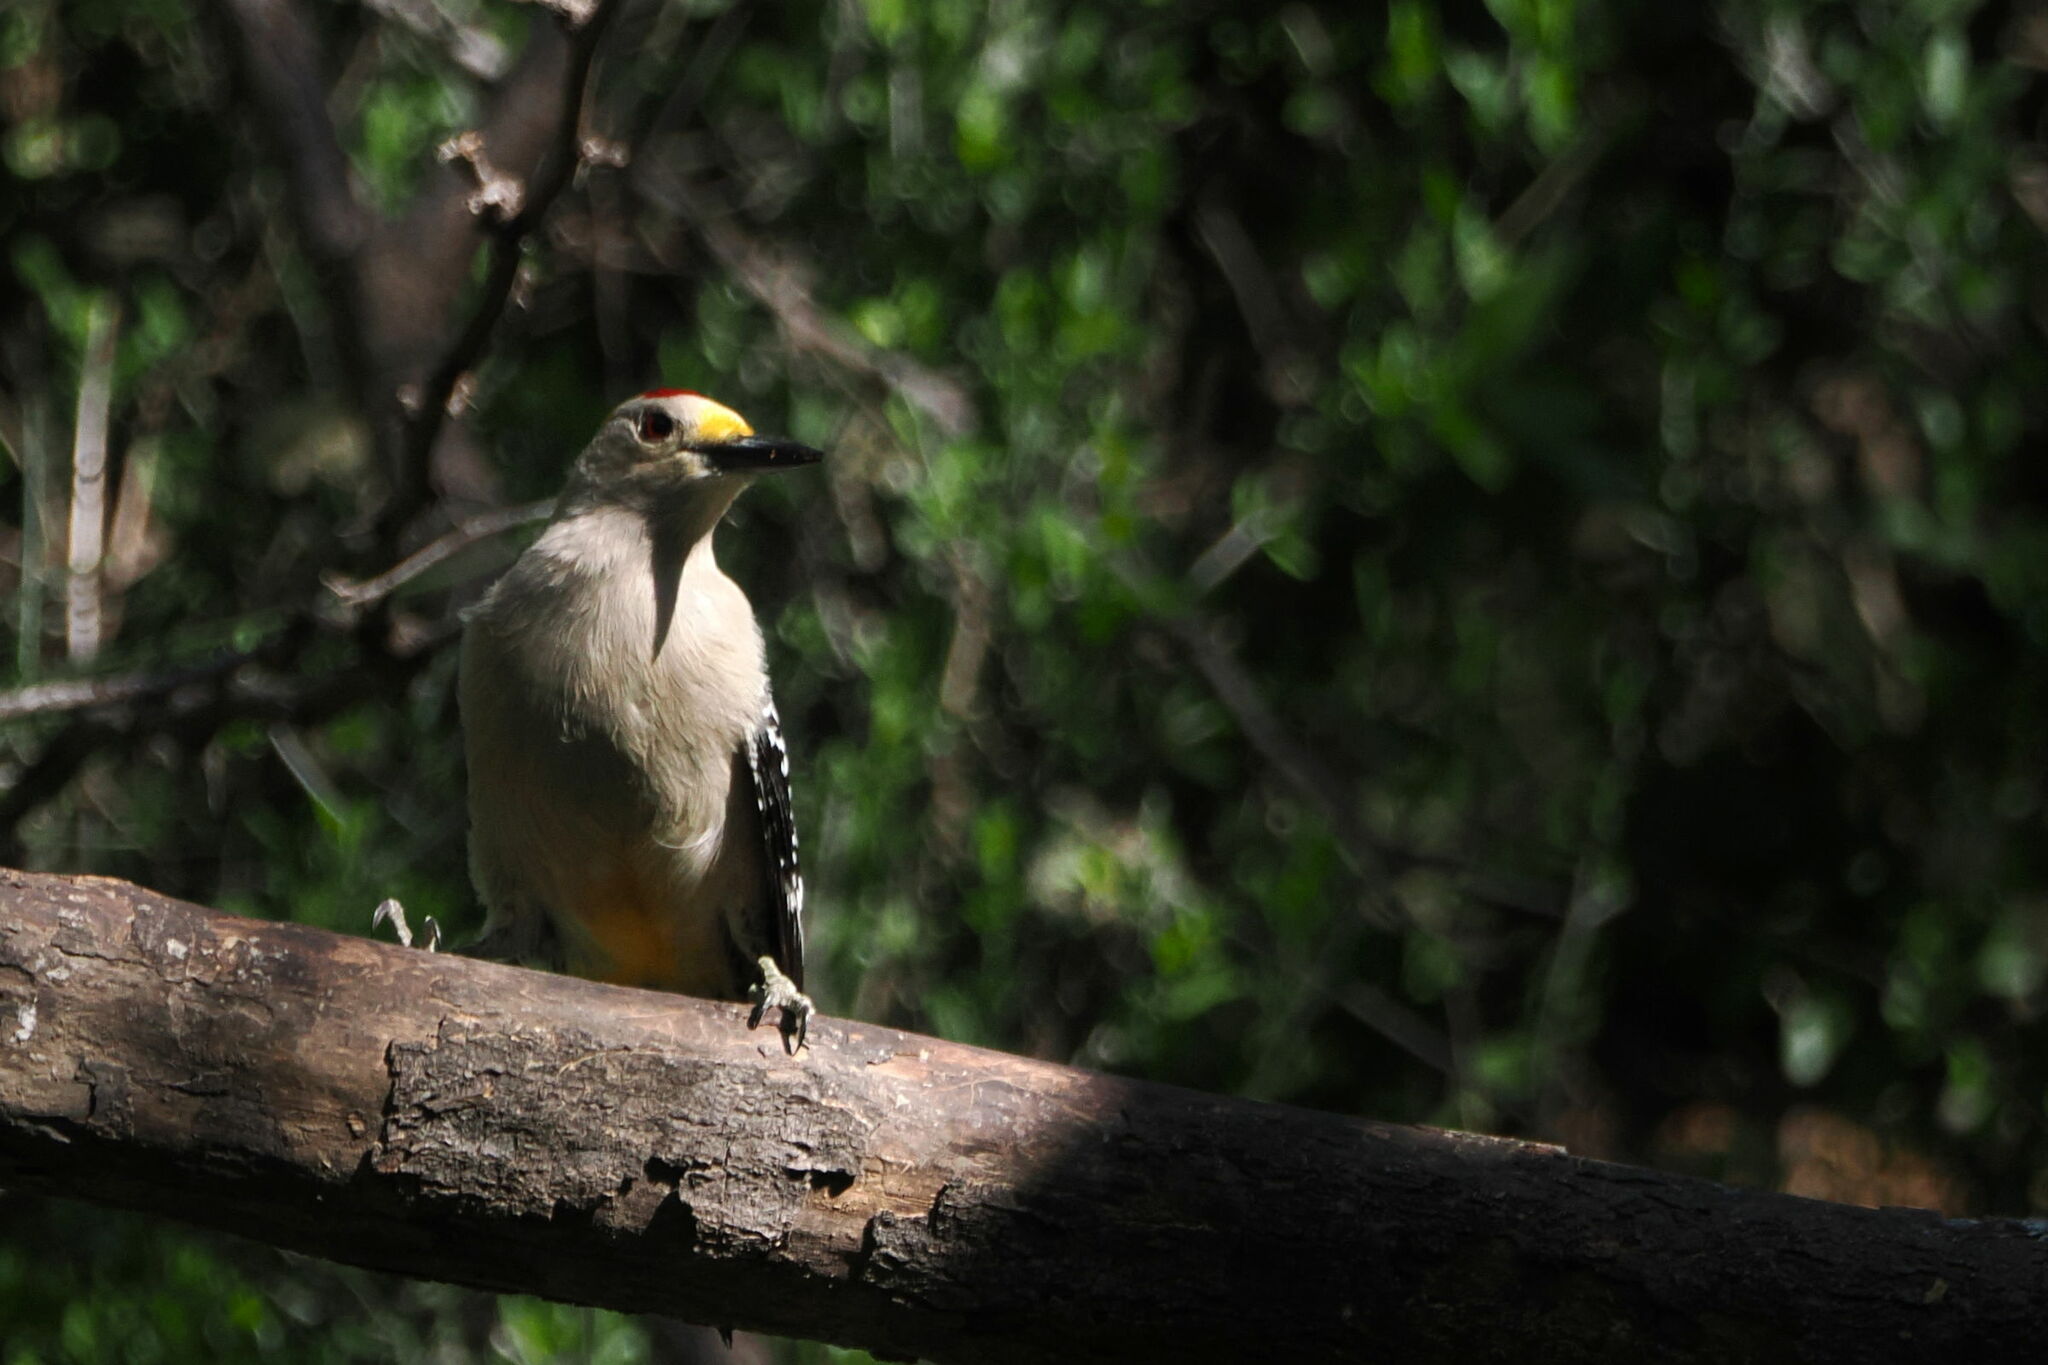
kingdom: Animalia
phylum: Chordata
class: Aves
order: Piciformes
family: Picidae
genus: Melanerpes
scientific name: Melanerpes aurifrons
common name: Golden-fronted woodpecker
